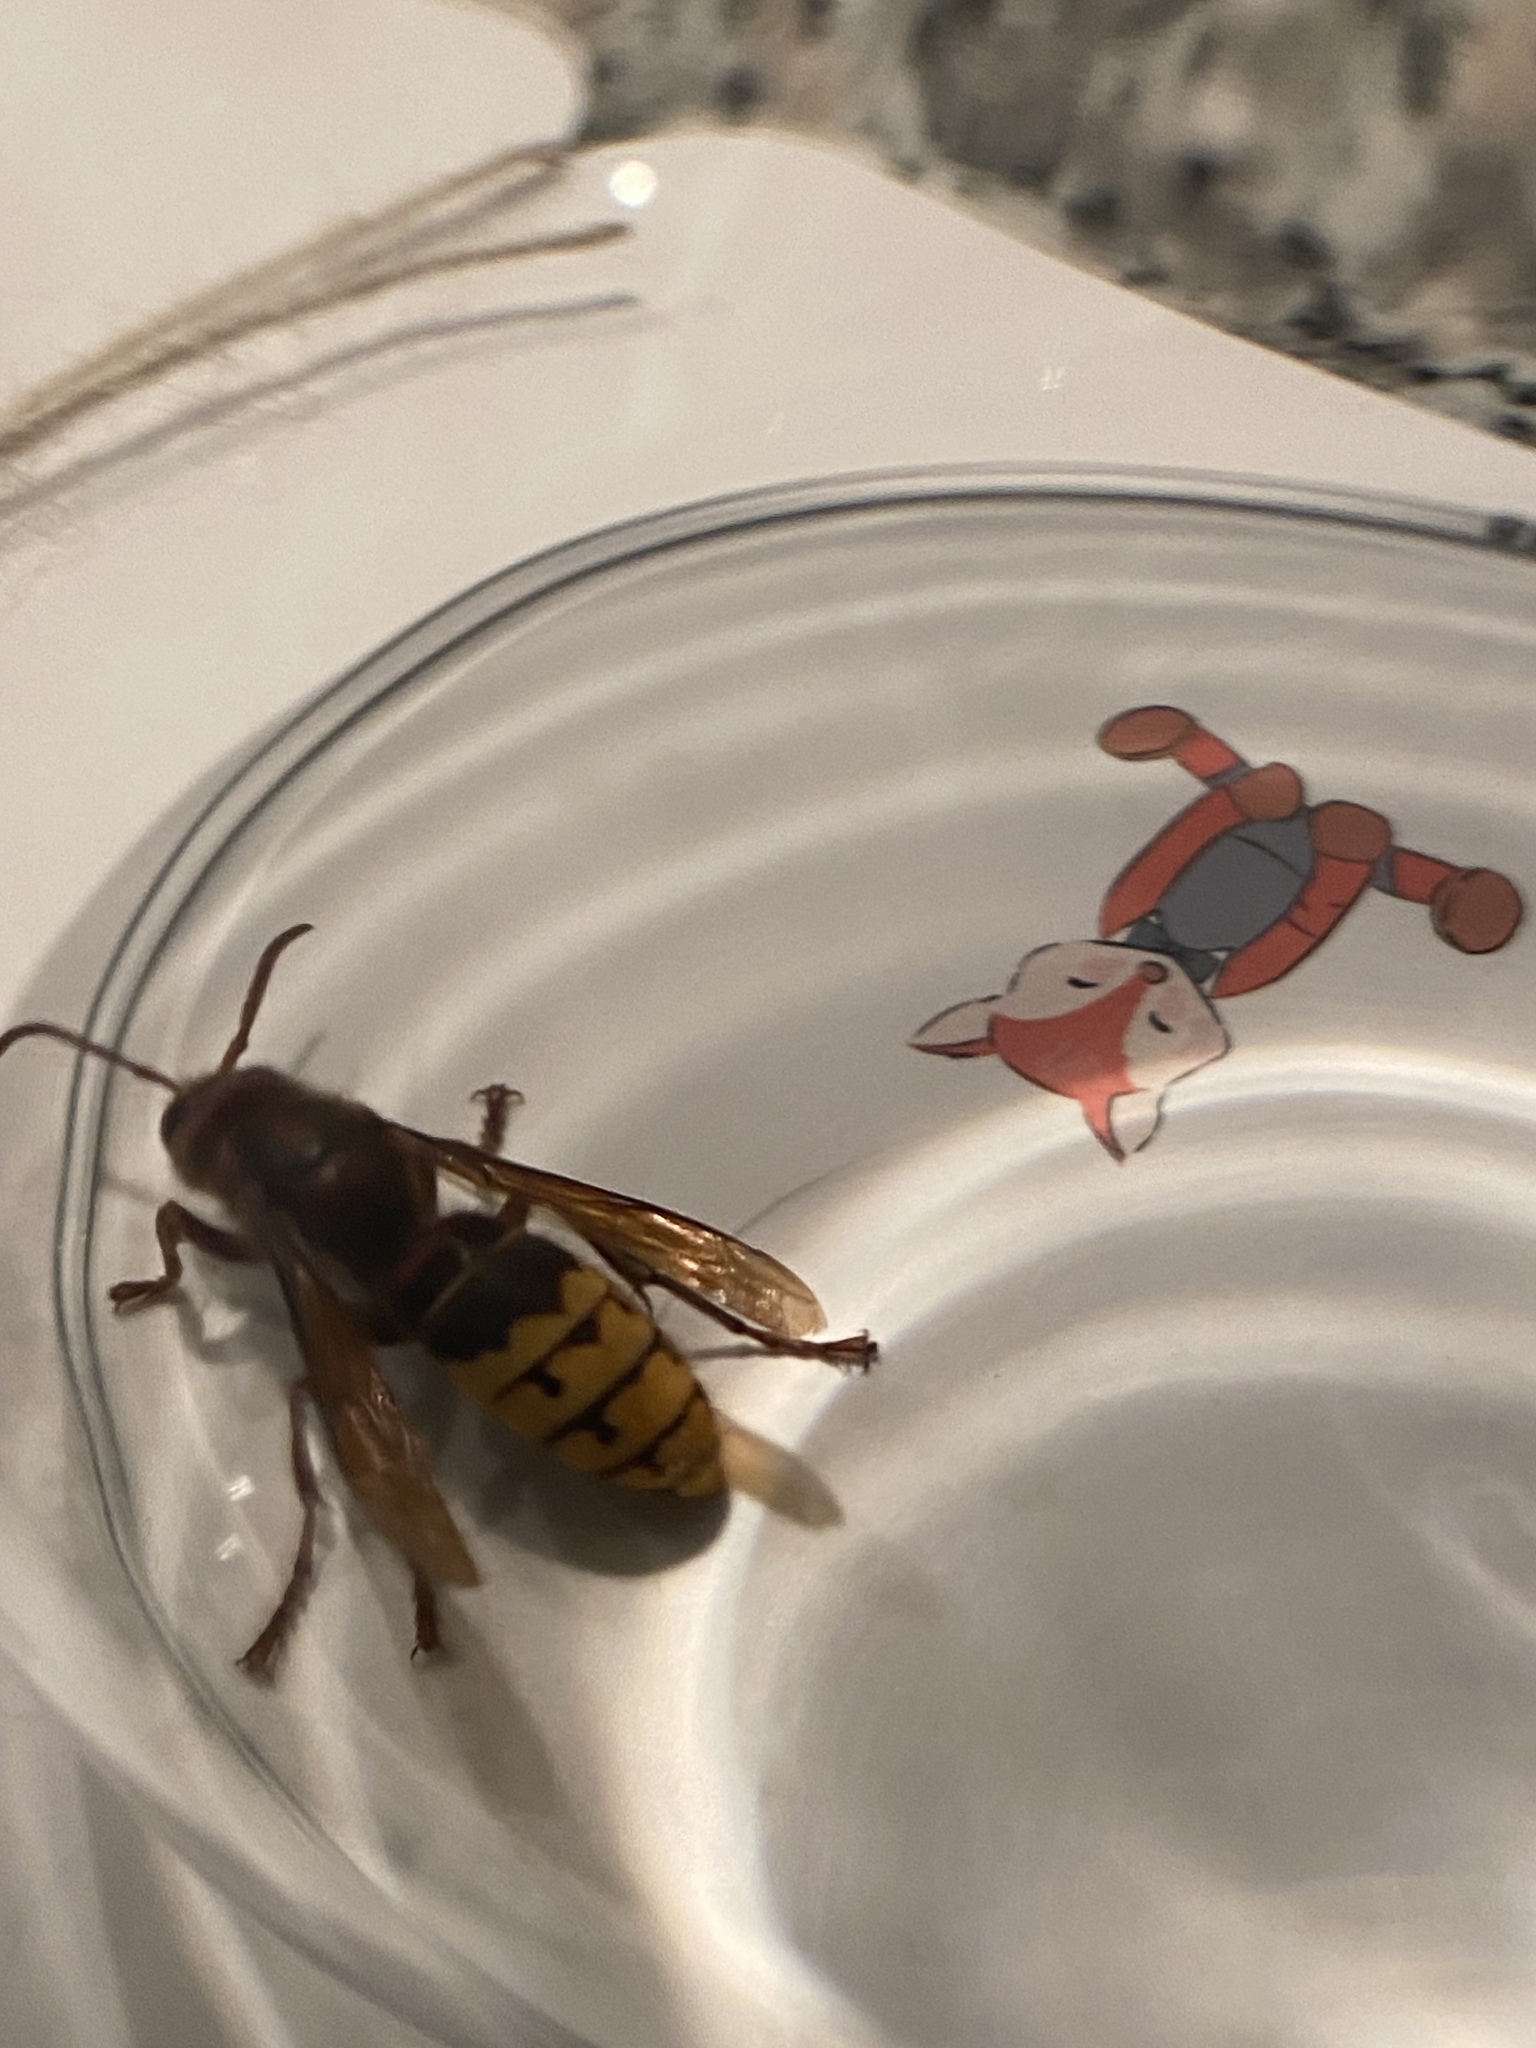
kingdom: Animalia
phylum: Arthropoda
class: Insecta
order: Hymenoptera
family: Vespidae
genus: Vespa
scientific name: Vespa crabro
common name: Hornet
